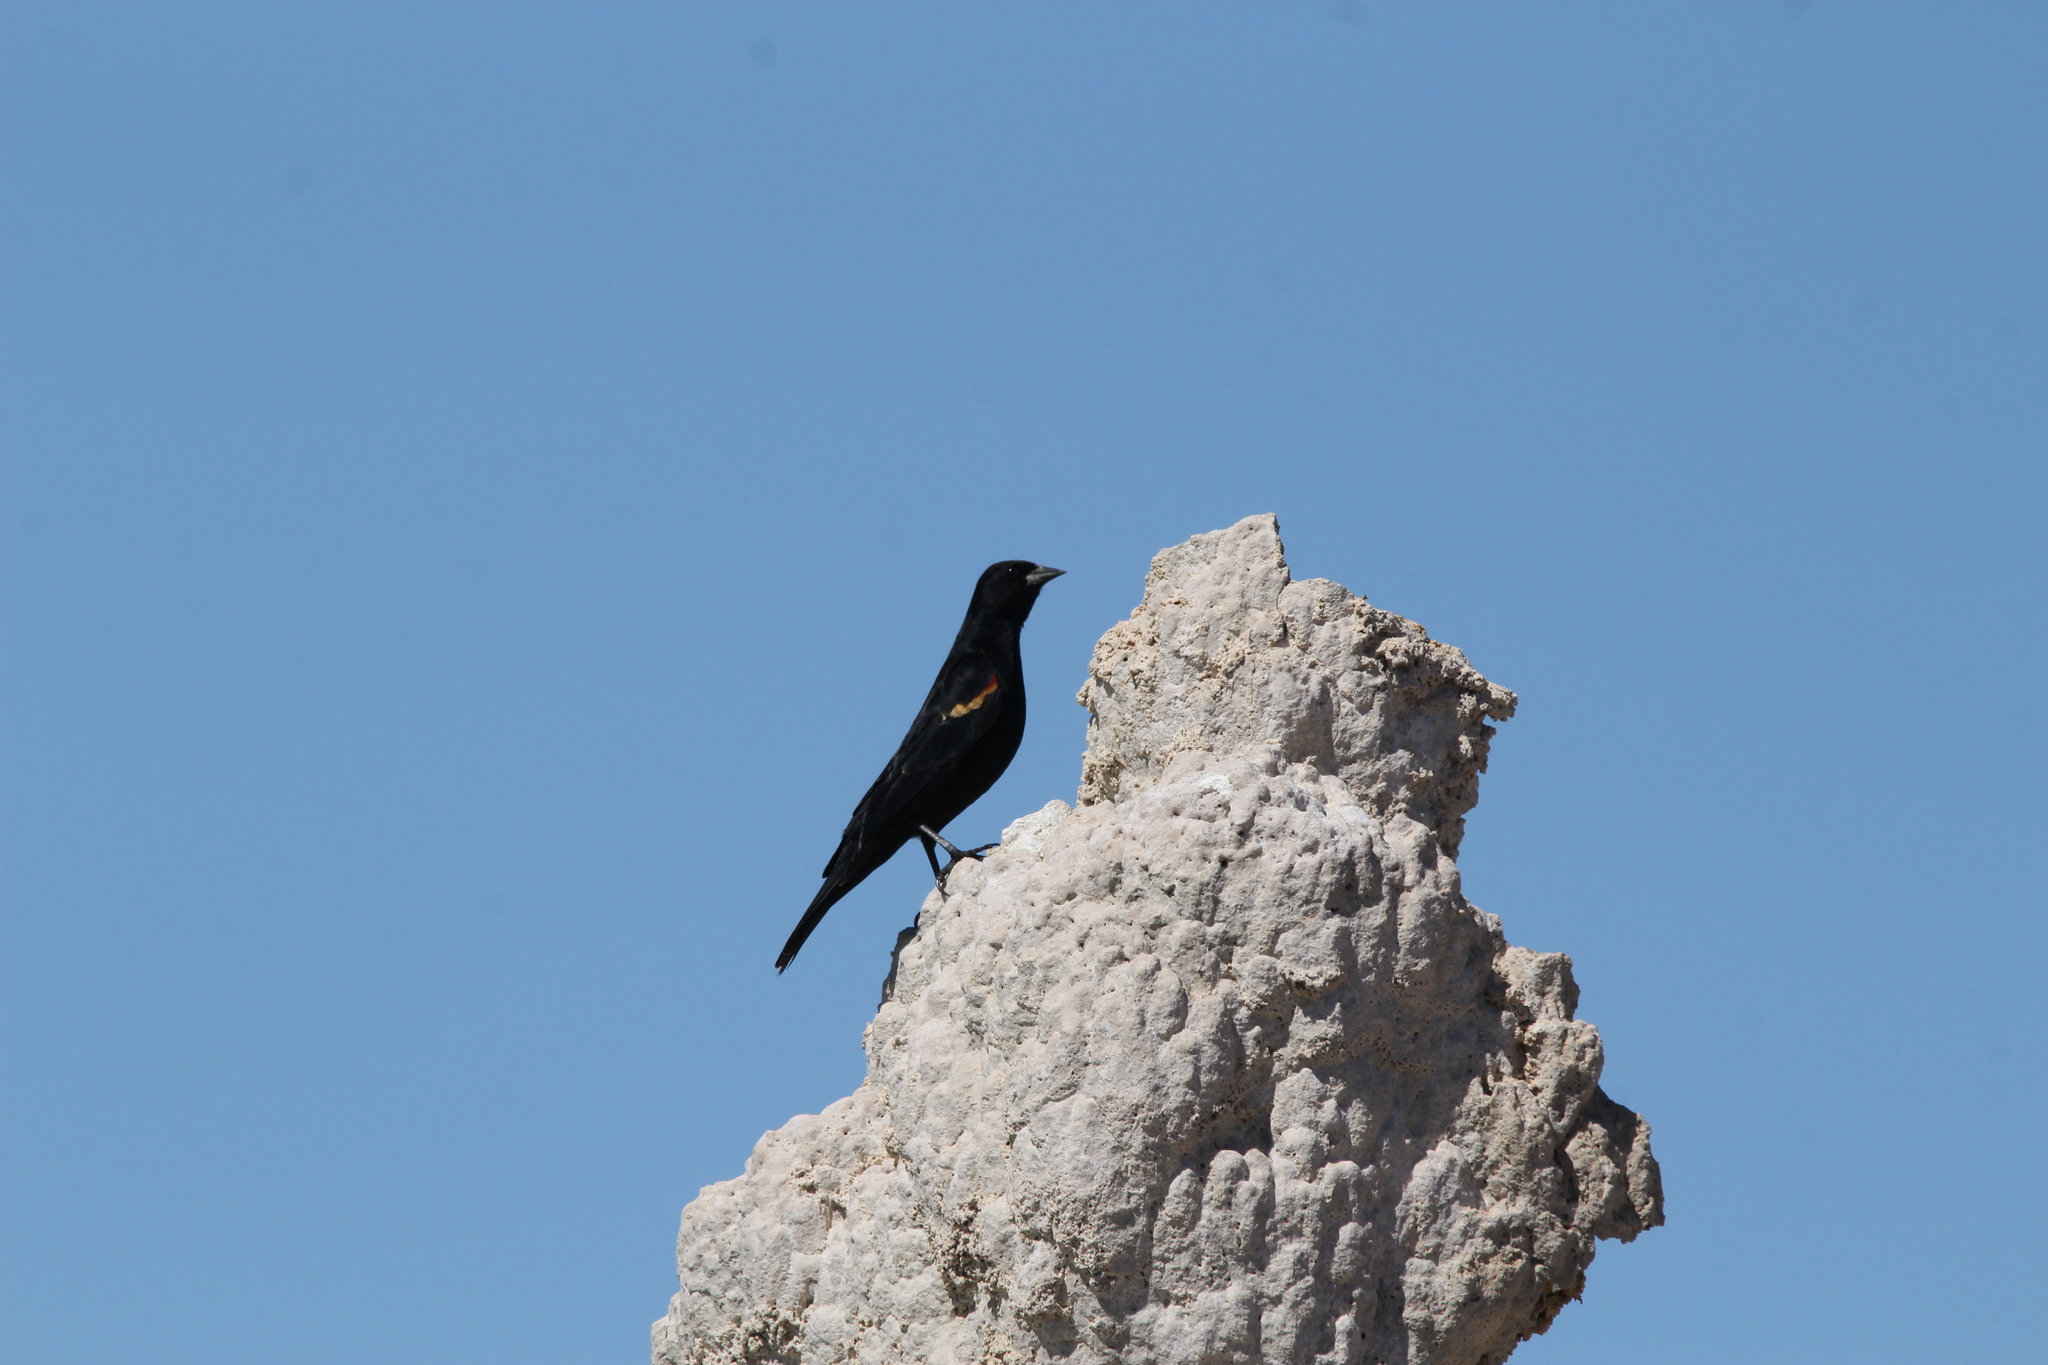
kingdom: Animalia
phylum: Chordata
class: Aves
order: Passeriformes
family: Icteridae
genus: Agelaius
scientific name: Agelaius phoeniceus
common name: Red-winged blackbird
